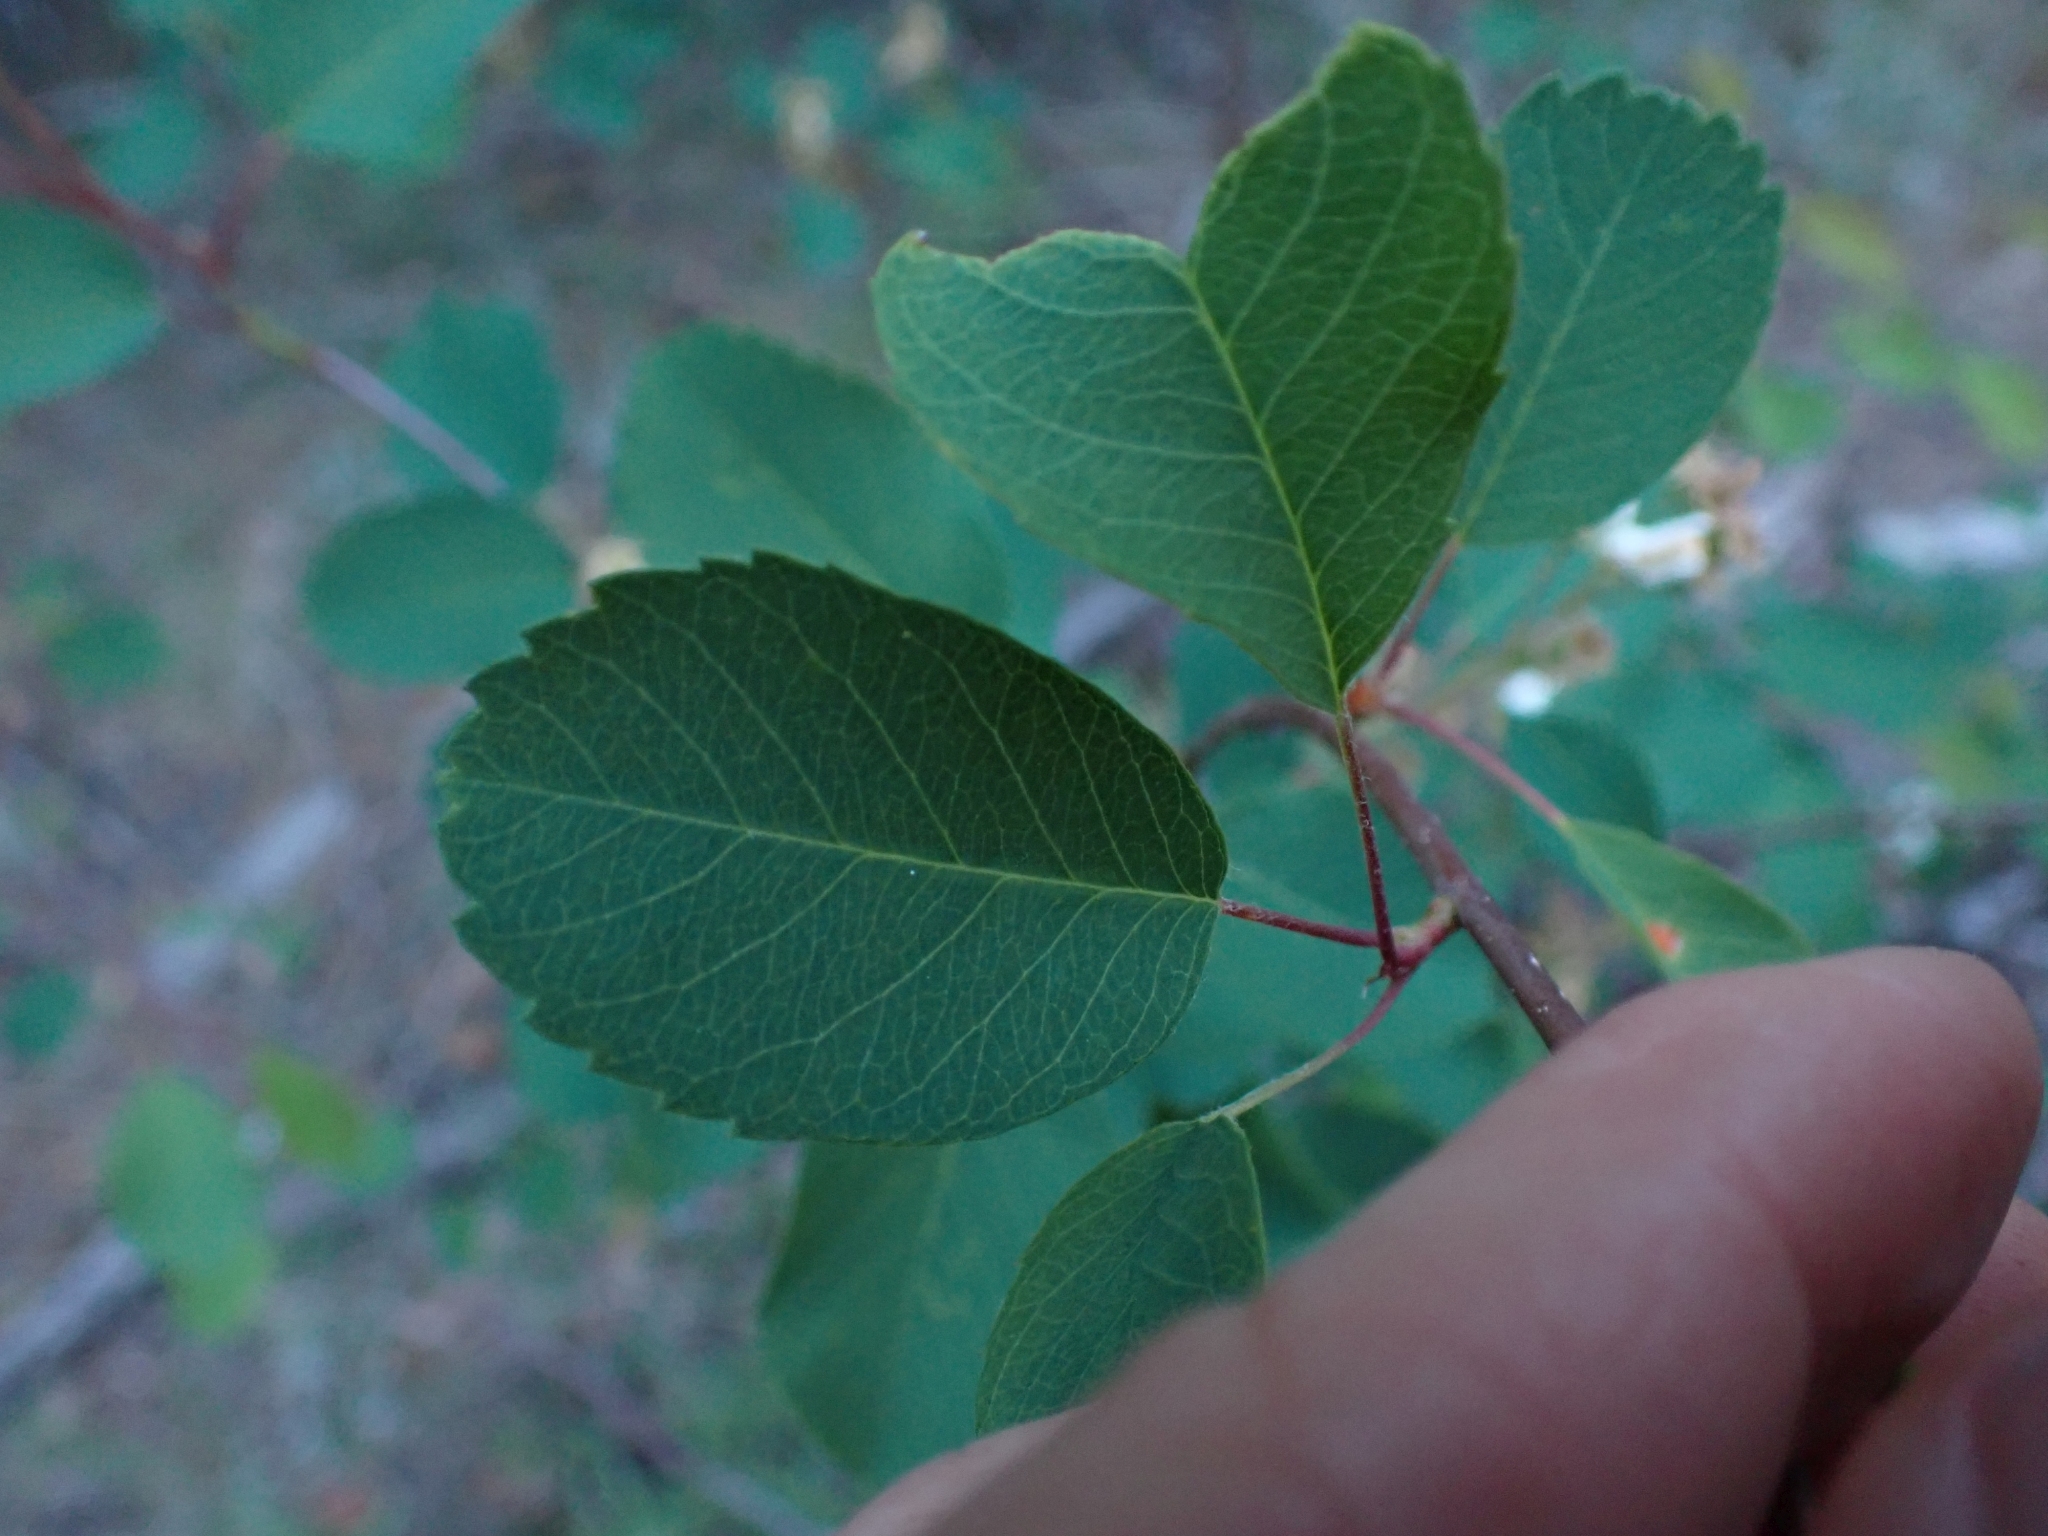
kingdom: Plantae
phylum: Tracheophyta
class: Magnoliopsida
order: Rosales
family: Rosaceae
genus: Amelanchier
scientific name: Amelanchier alnifolia
